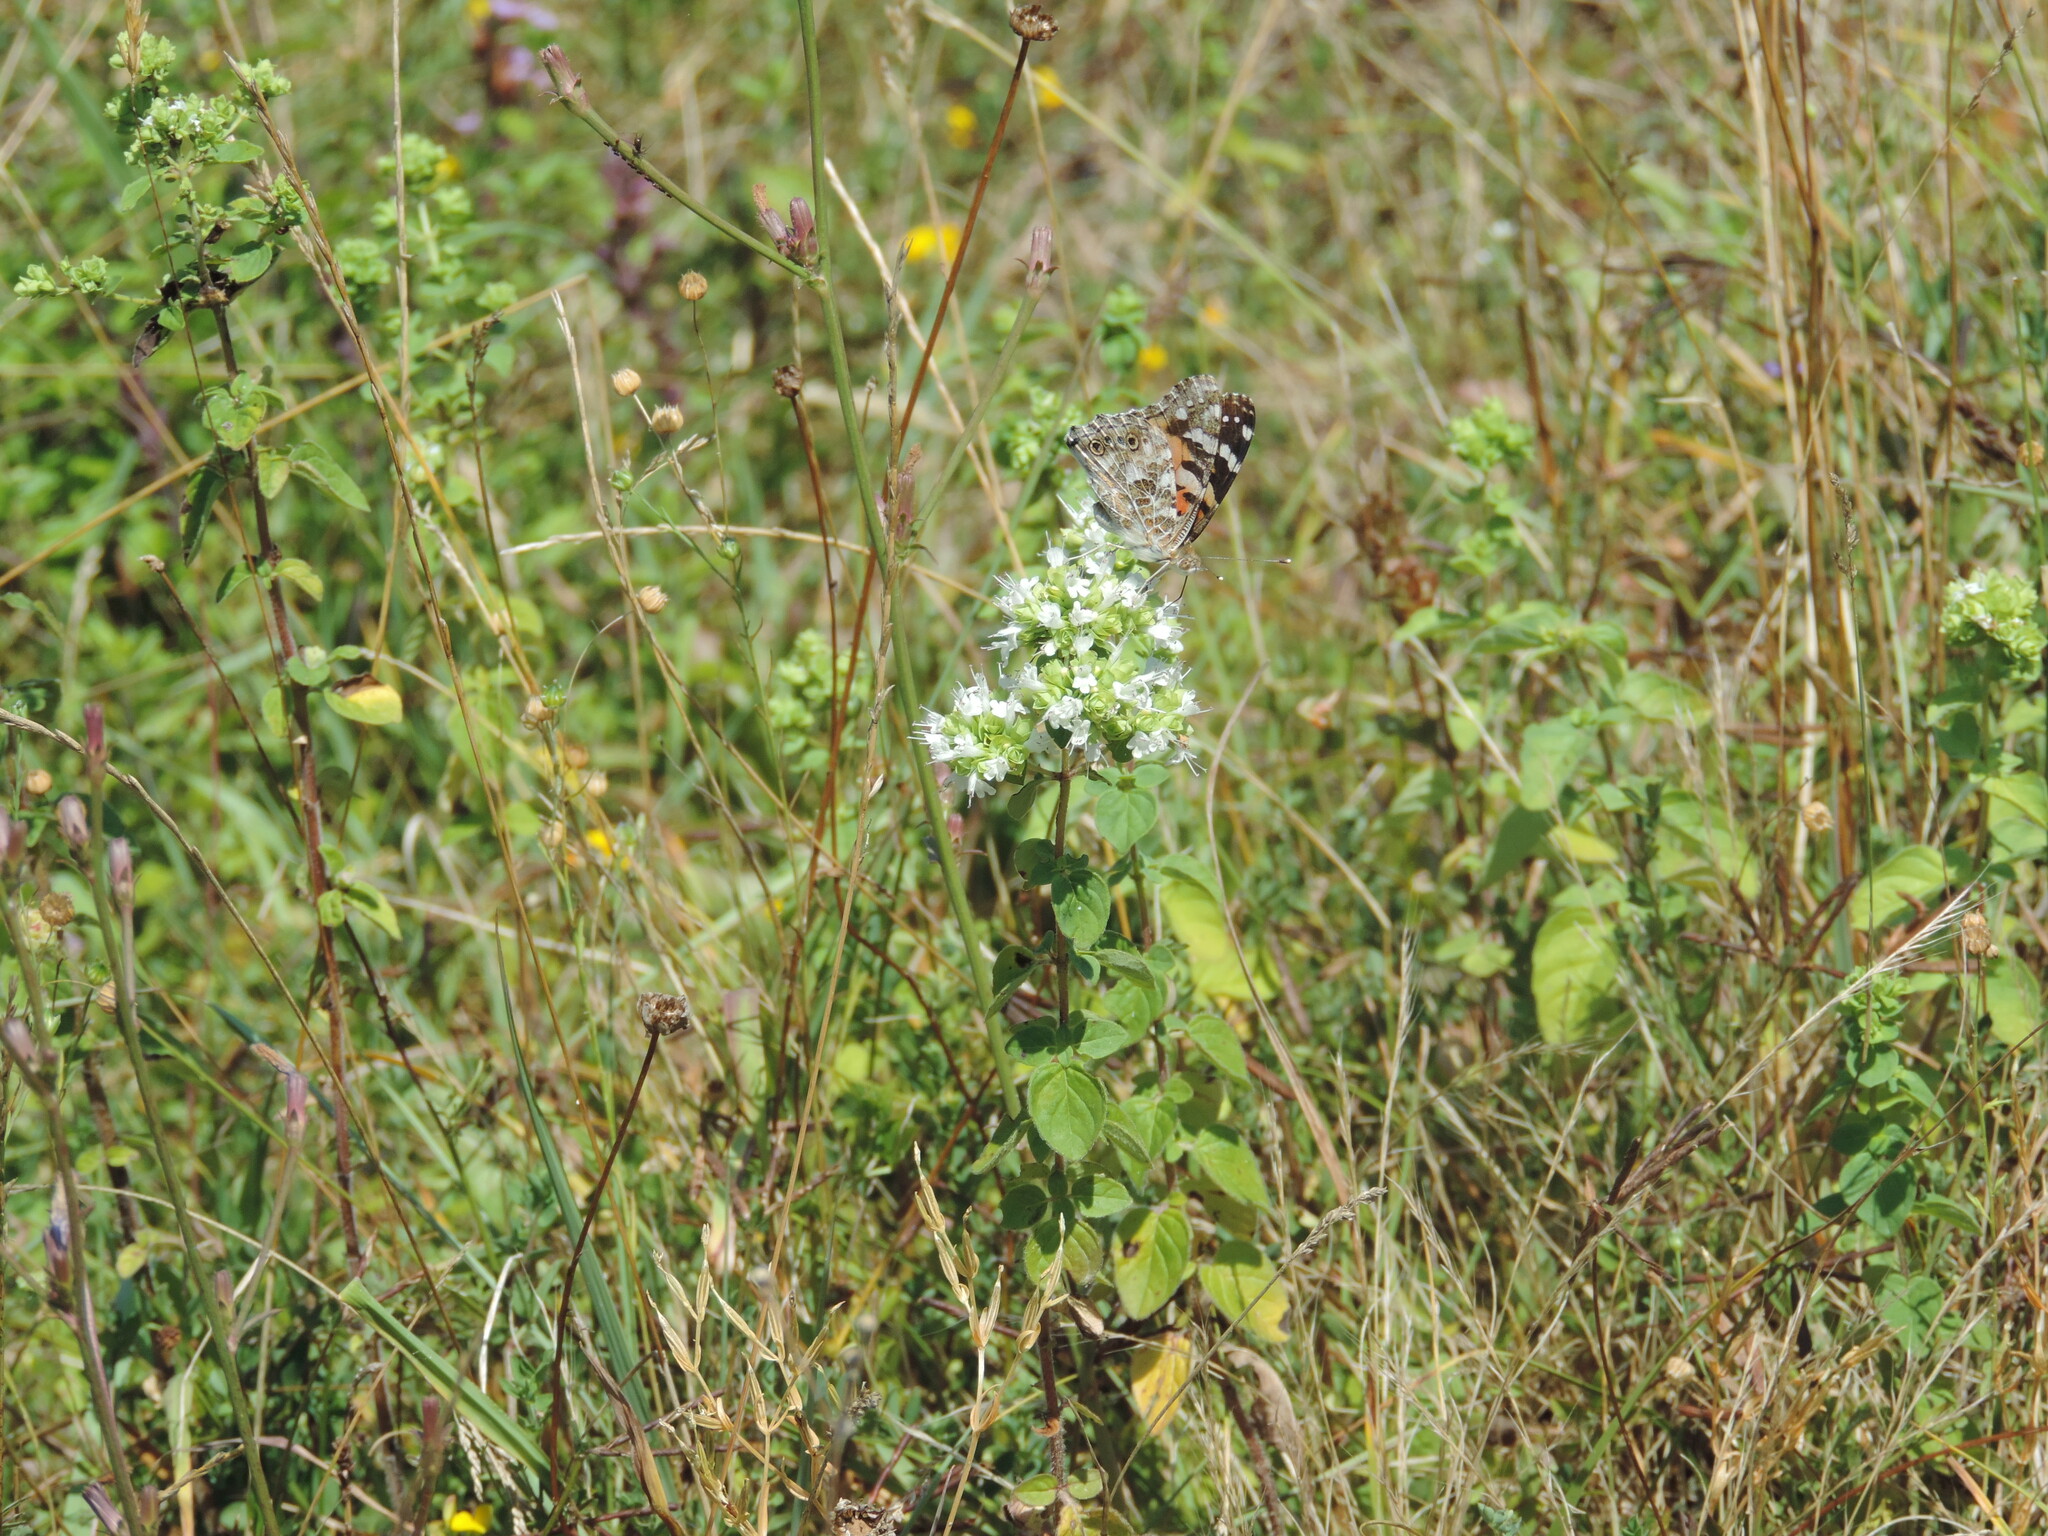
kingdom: Animalia
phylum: Arthropoda
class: Insecta
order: Lepidoptera
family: Nymphalidae
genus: Vanessa
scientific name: Vanessa cardui
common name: Painted lady
